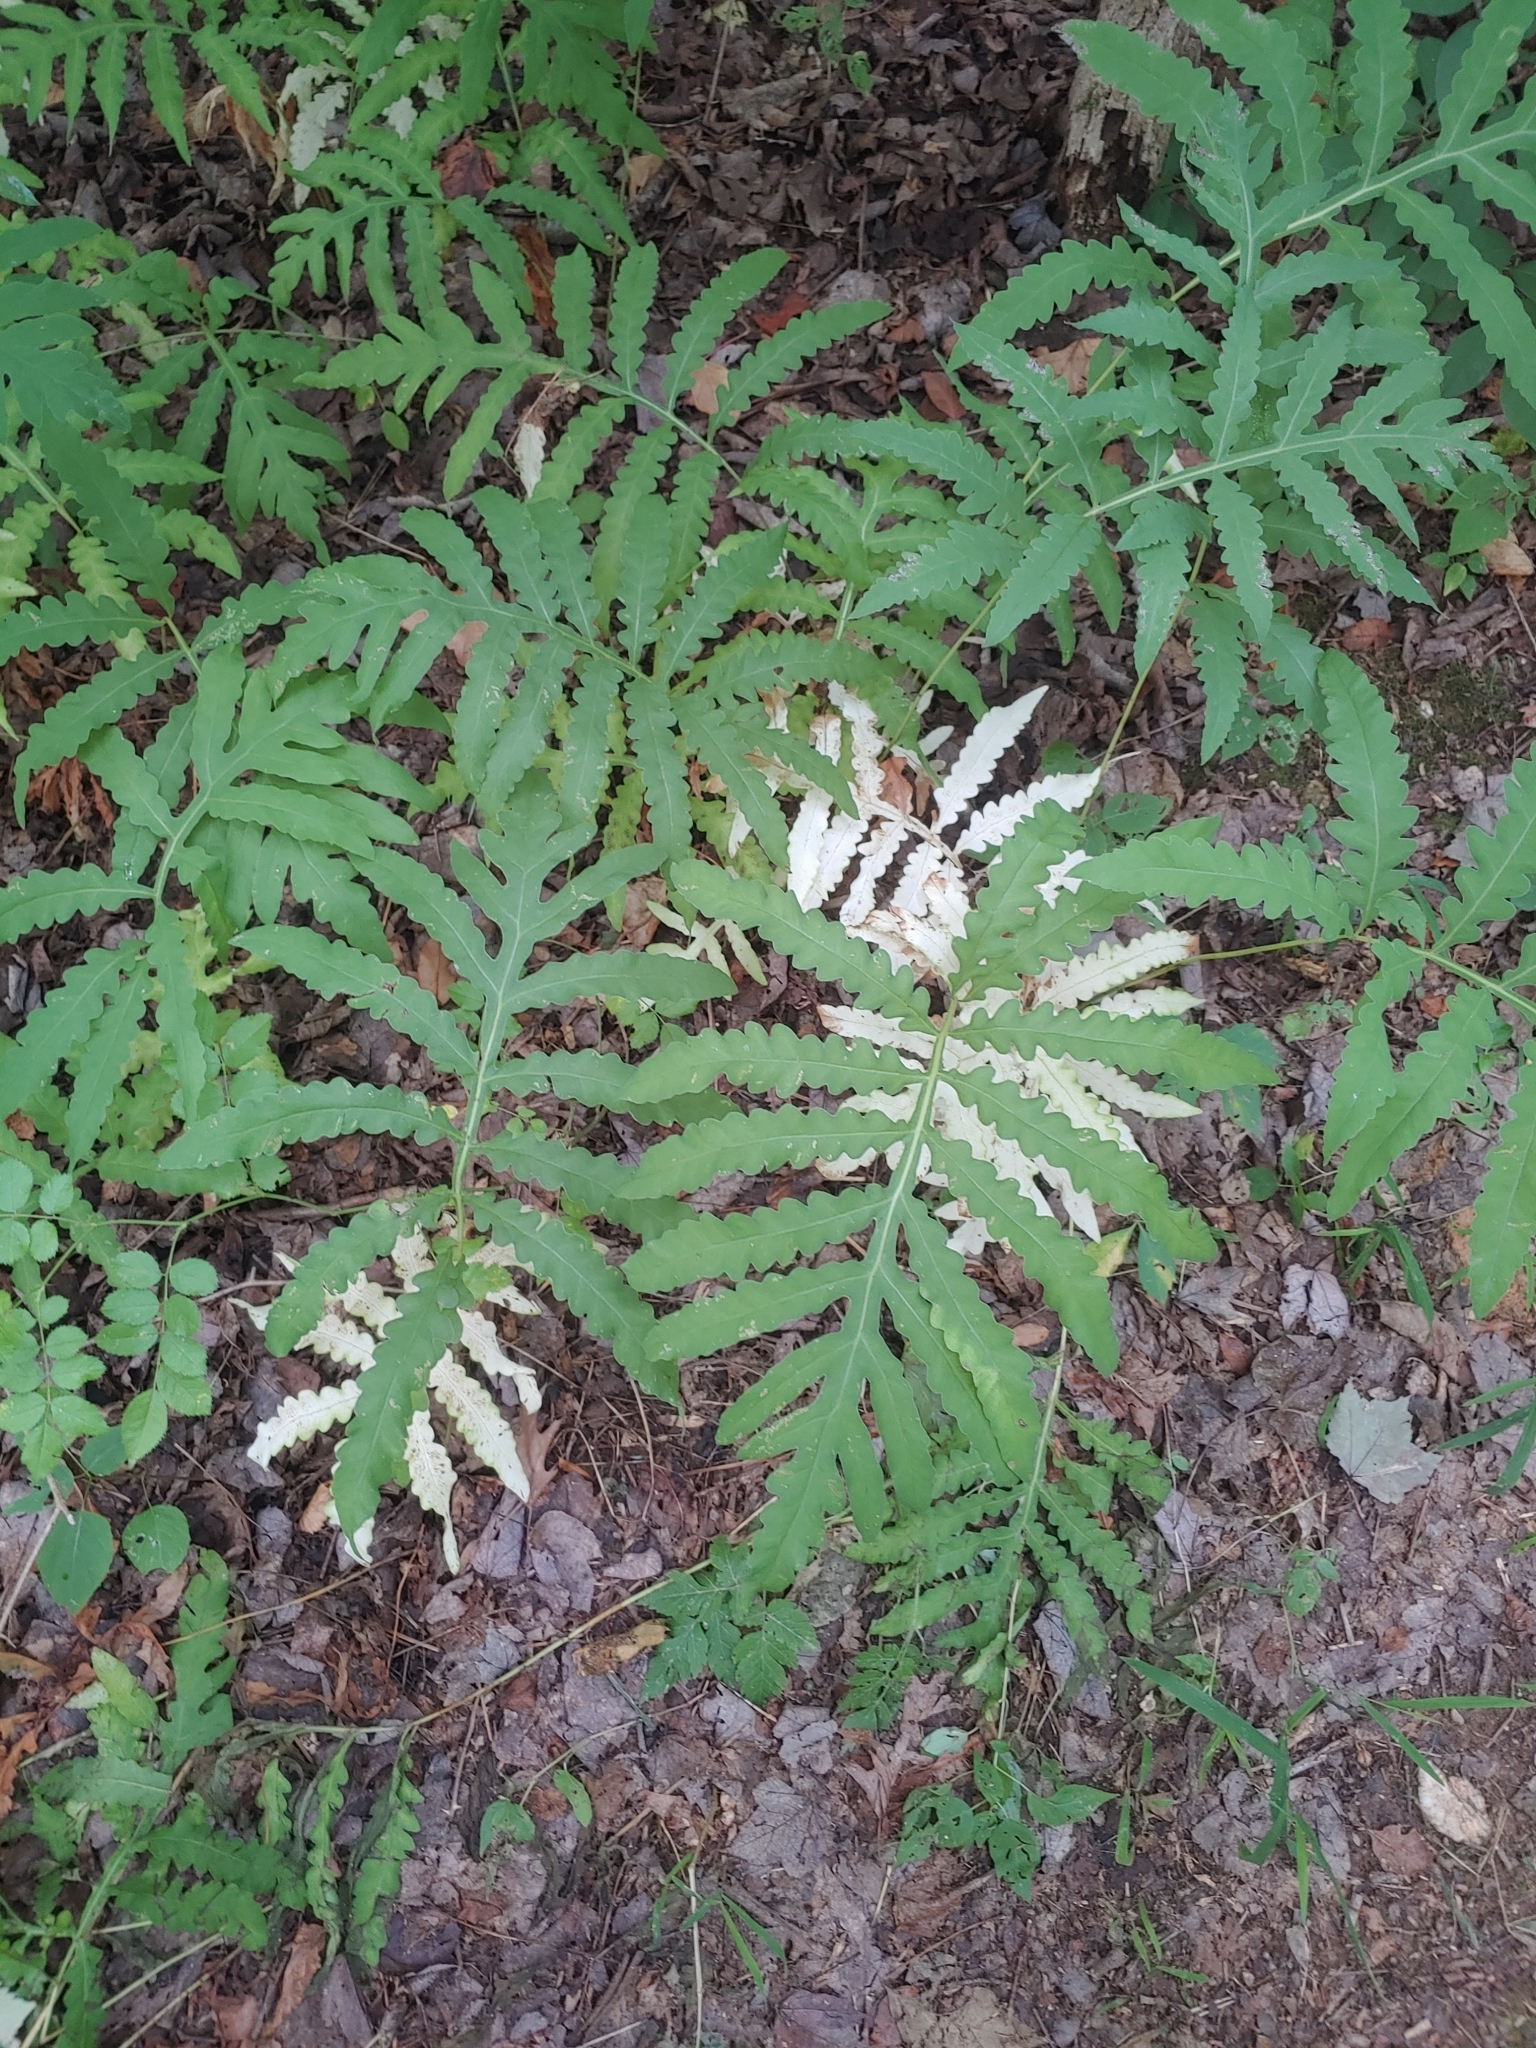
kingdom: Plantae
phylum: Tracheophyta
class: Polypodiopsida
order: Polypodiales
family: Onocleaceae
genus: Onoclea
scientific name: Onoclea sensibilis
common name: Sensitive fern
